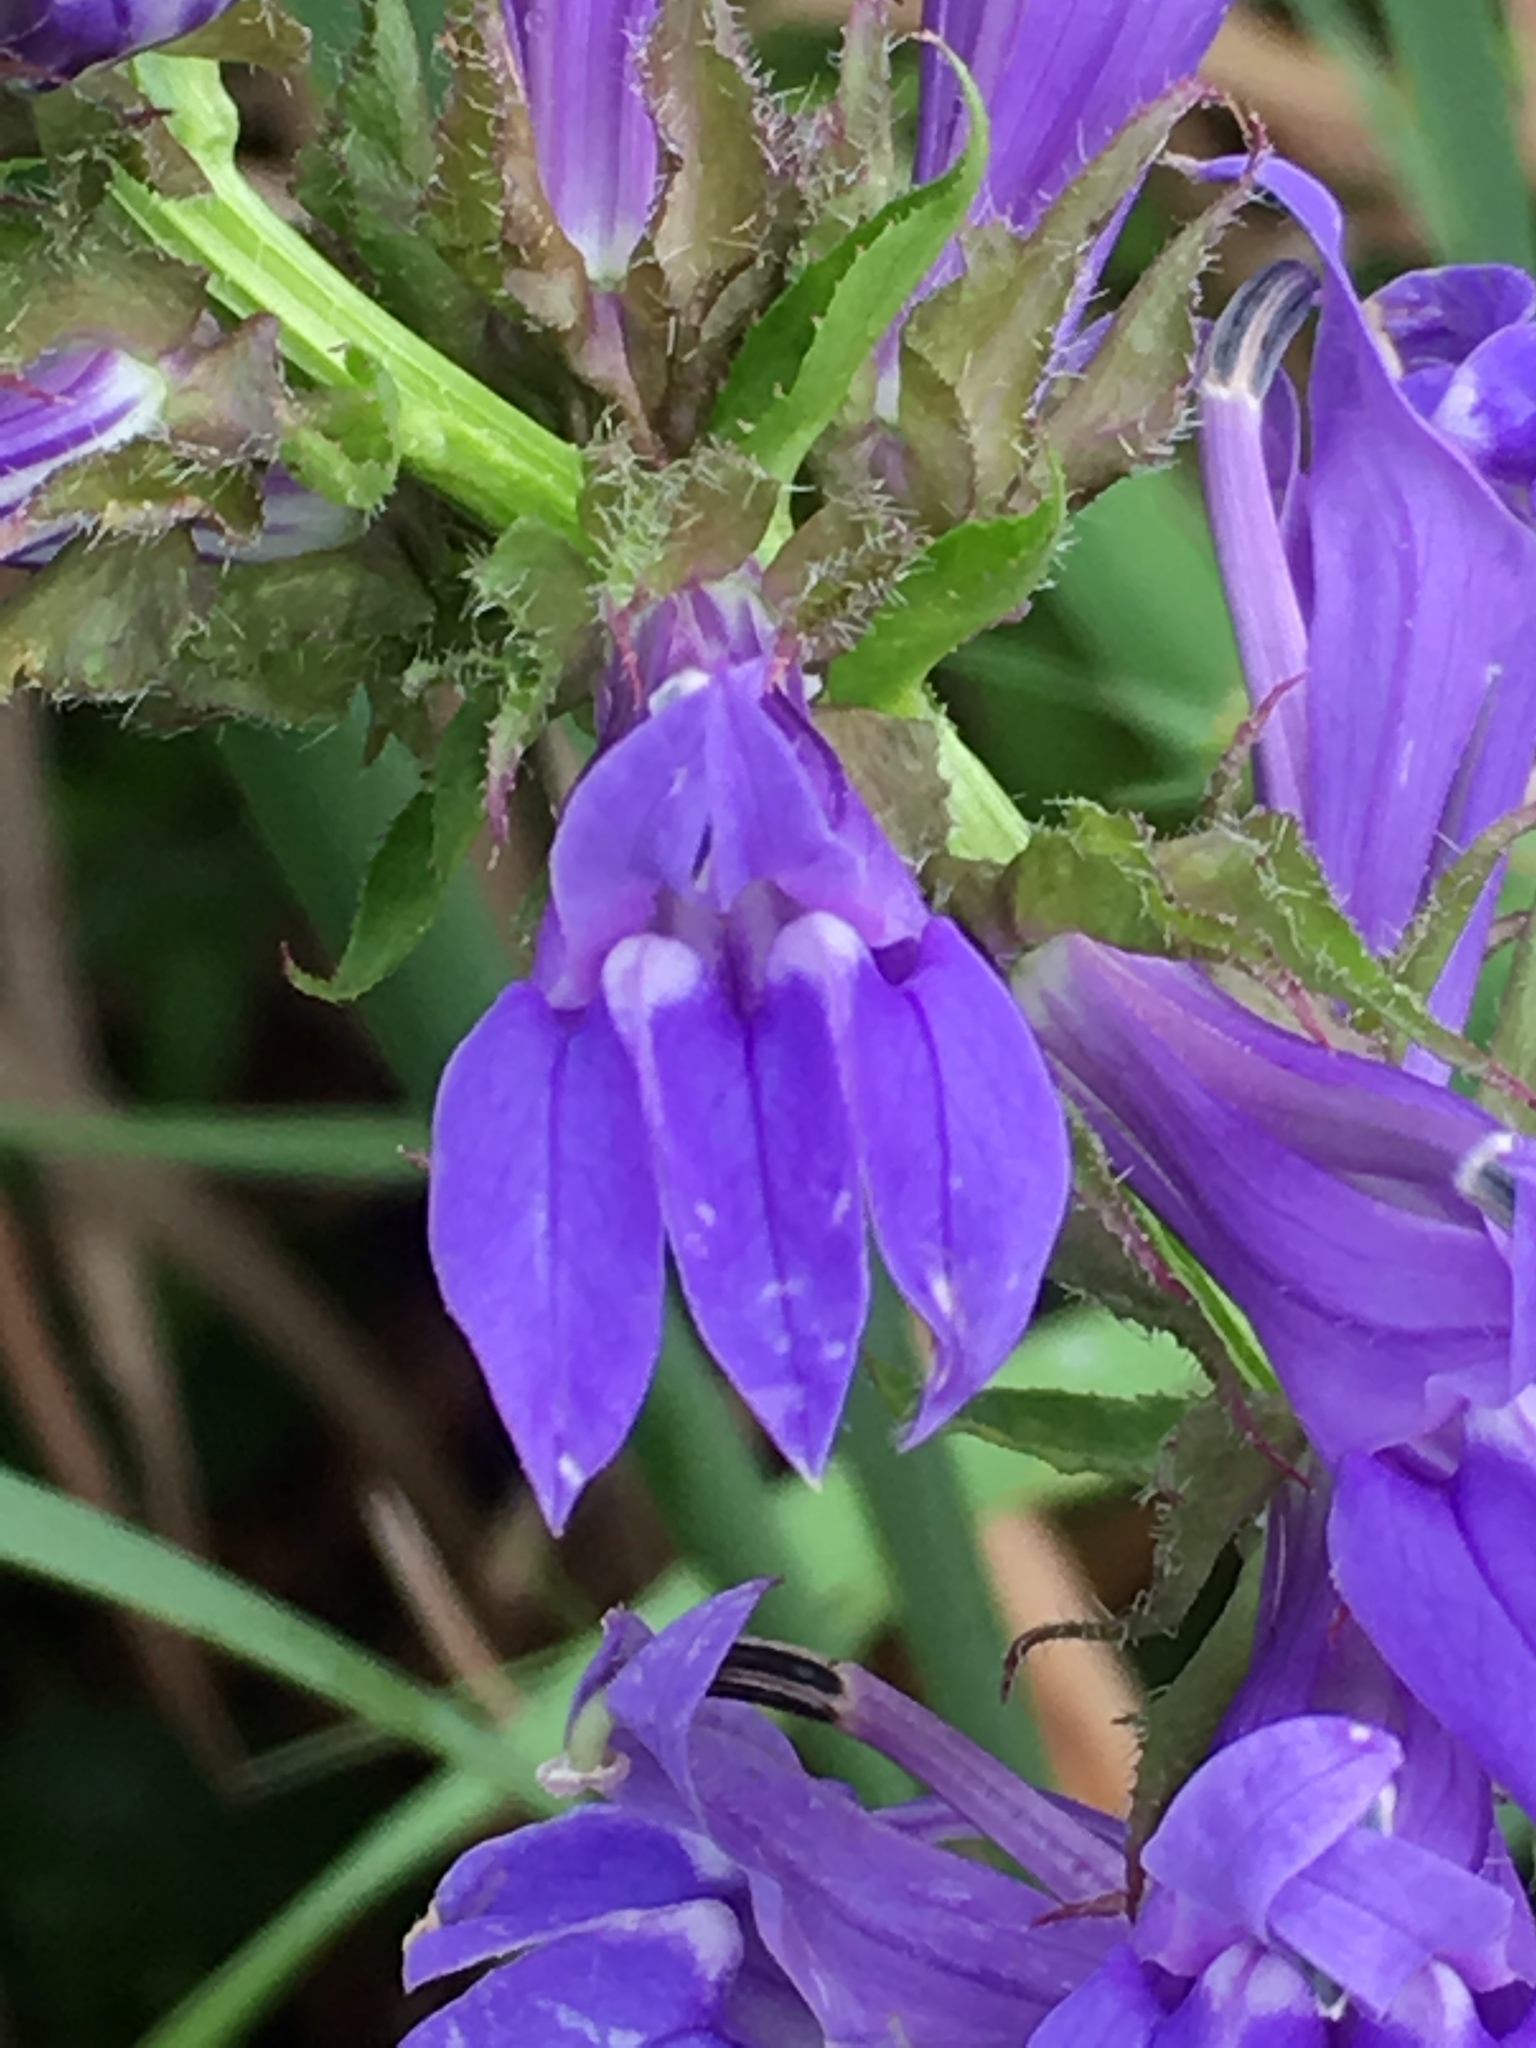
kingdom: Plantae
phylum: Tracheophyta
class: Magnoliopsida
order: Asterales
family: Campanulaceae
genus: Lobelia
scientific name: Lobelia siphilitica
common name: Great lobelia
